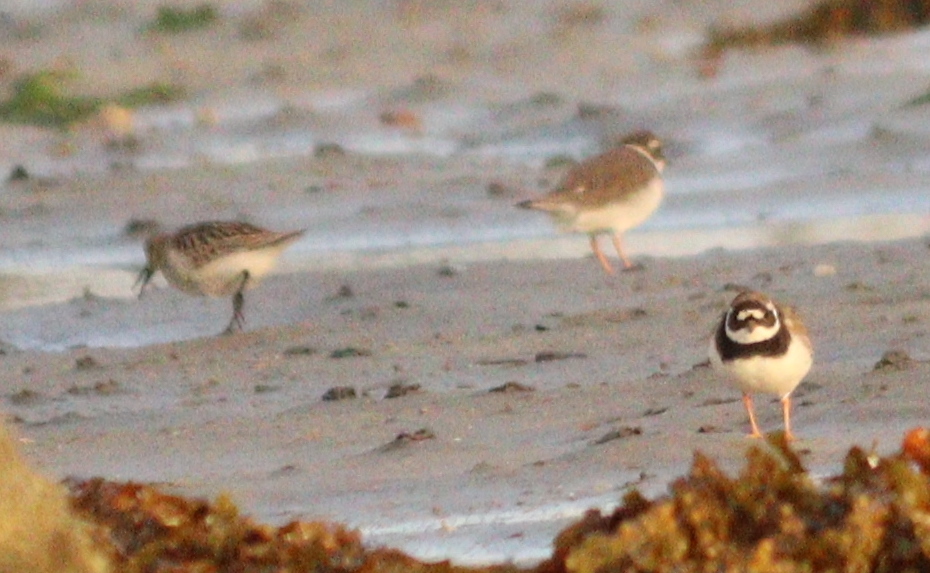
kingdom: Animalia
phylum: Chordata
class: Aves
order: Charadriiformes
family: Charadriidae
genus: Charadrius
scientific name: Charadrius hiaticula
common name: Common ringed plover
